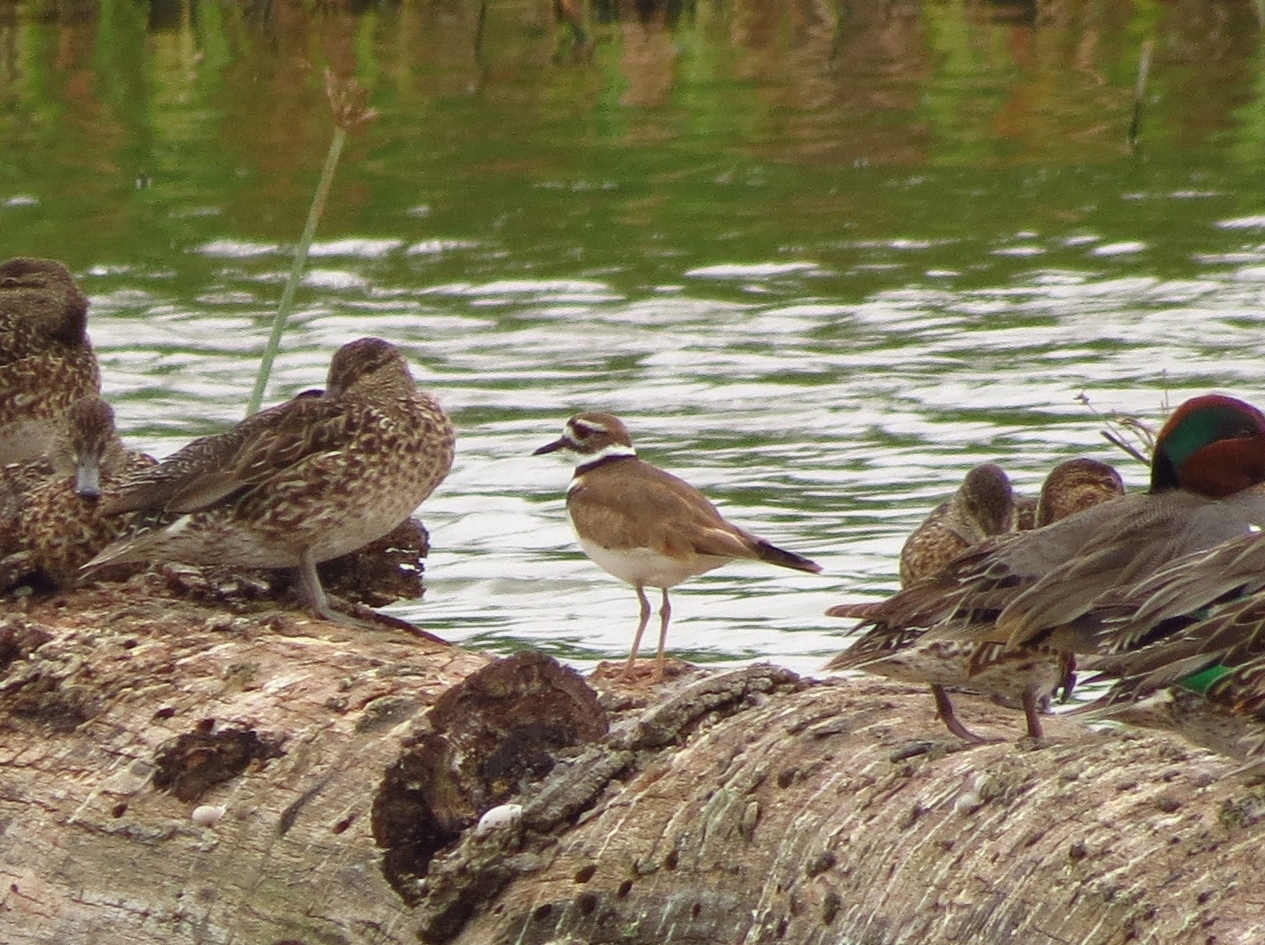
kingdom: Animalia
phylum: Chordata
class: Aves
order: Charadriiformes
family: Charadriidae
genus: Charadrius
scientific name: Charadrius vociferus
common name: Killdeer
